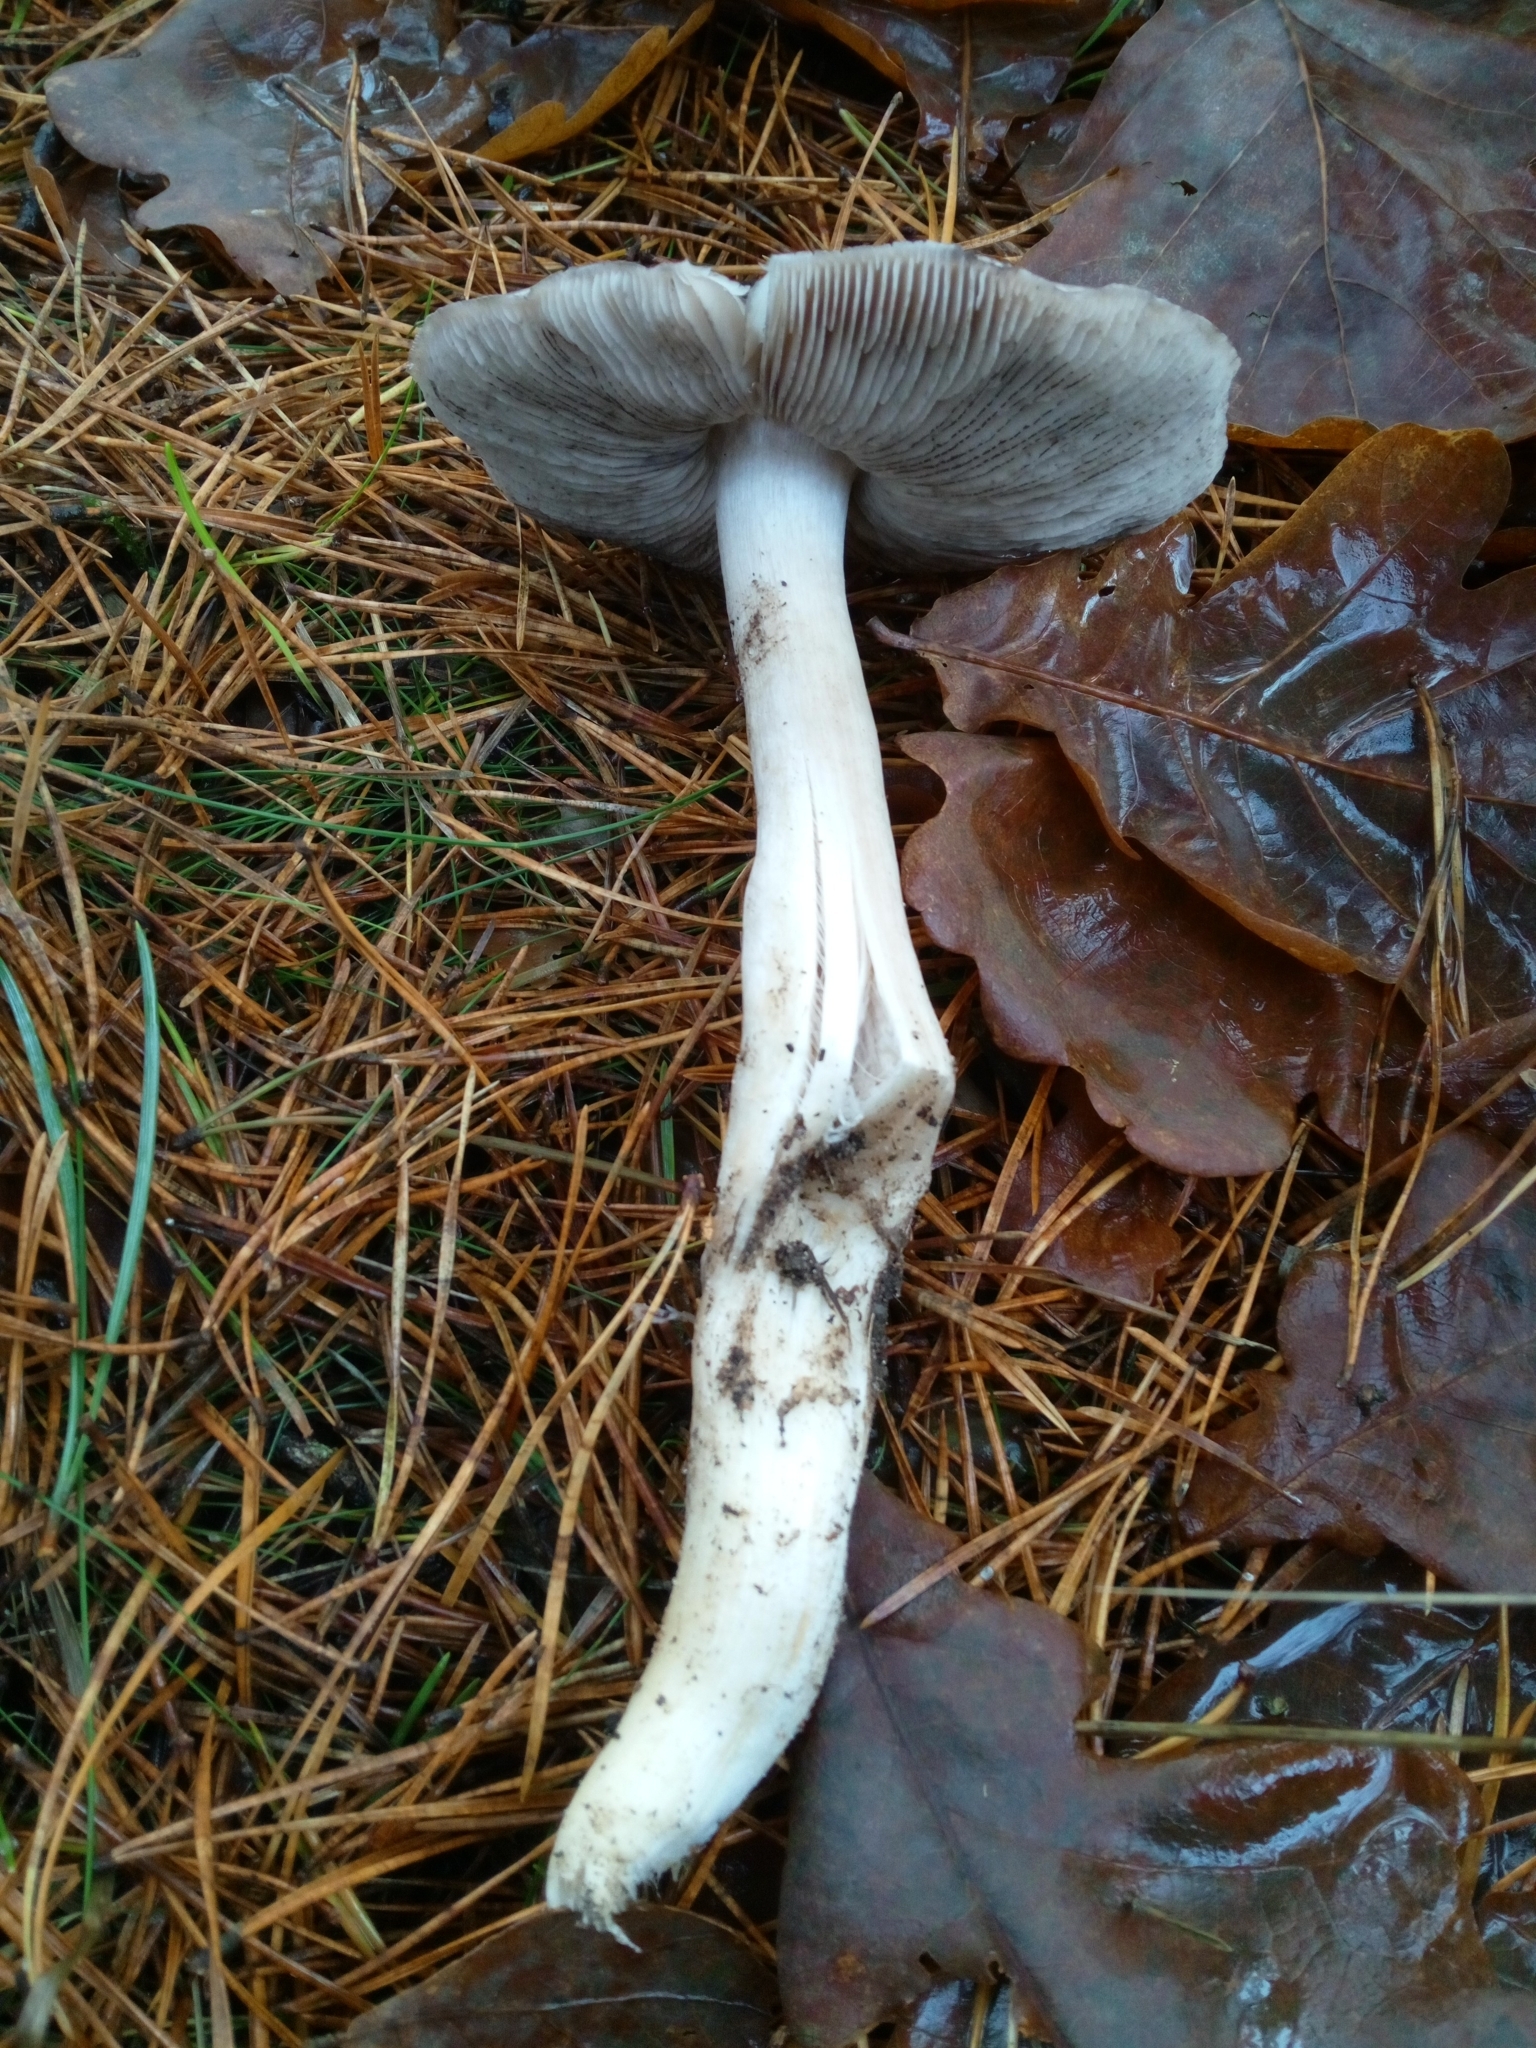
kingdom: Fungi
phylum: Basidiomycota
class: Agaricomycetes
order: Agaricales
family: Tricholomataceae
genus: Tricholoma
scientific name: Tricholoma terreum
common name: Grey knight
